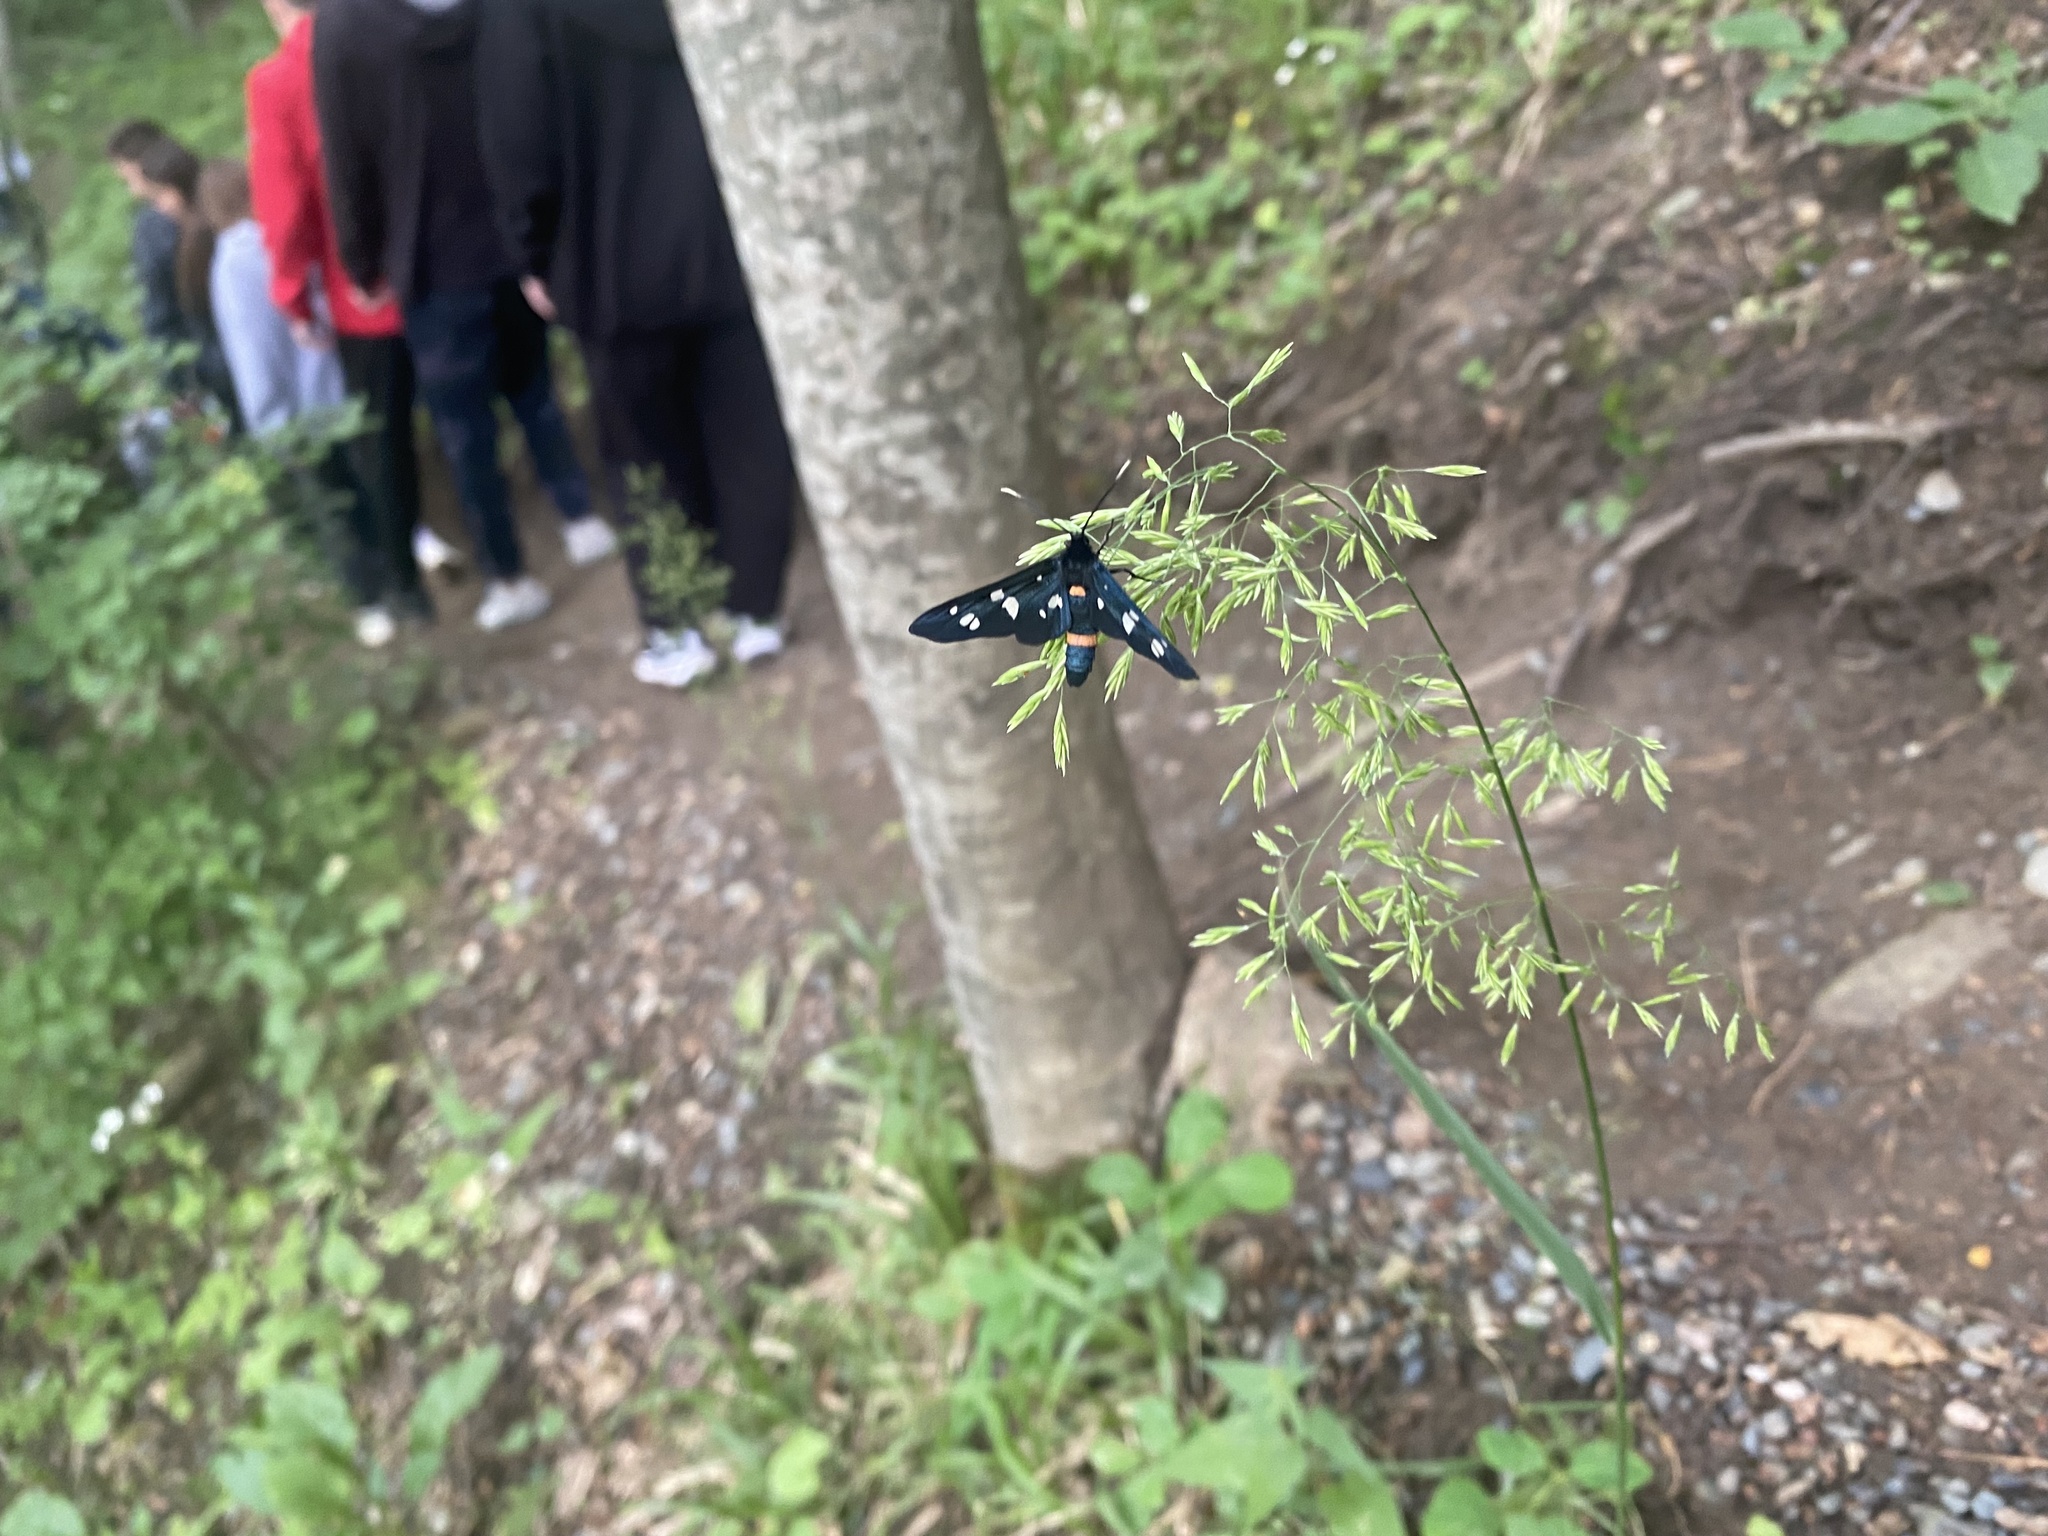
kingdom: Animalia
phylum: Arthropoda
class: Insecta
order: Lepidoptera
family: Erebidae
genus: Amata
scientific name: Amata nigricornis
